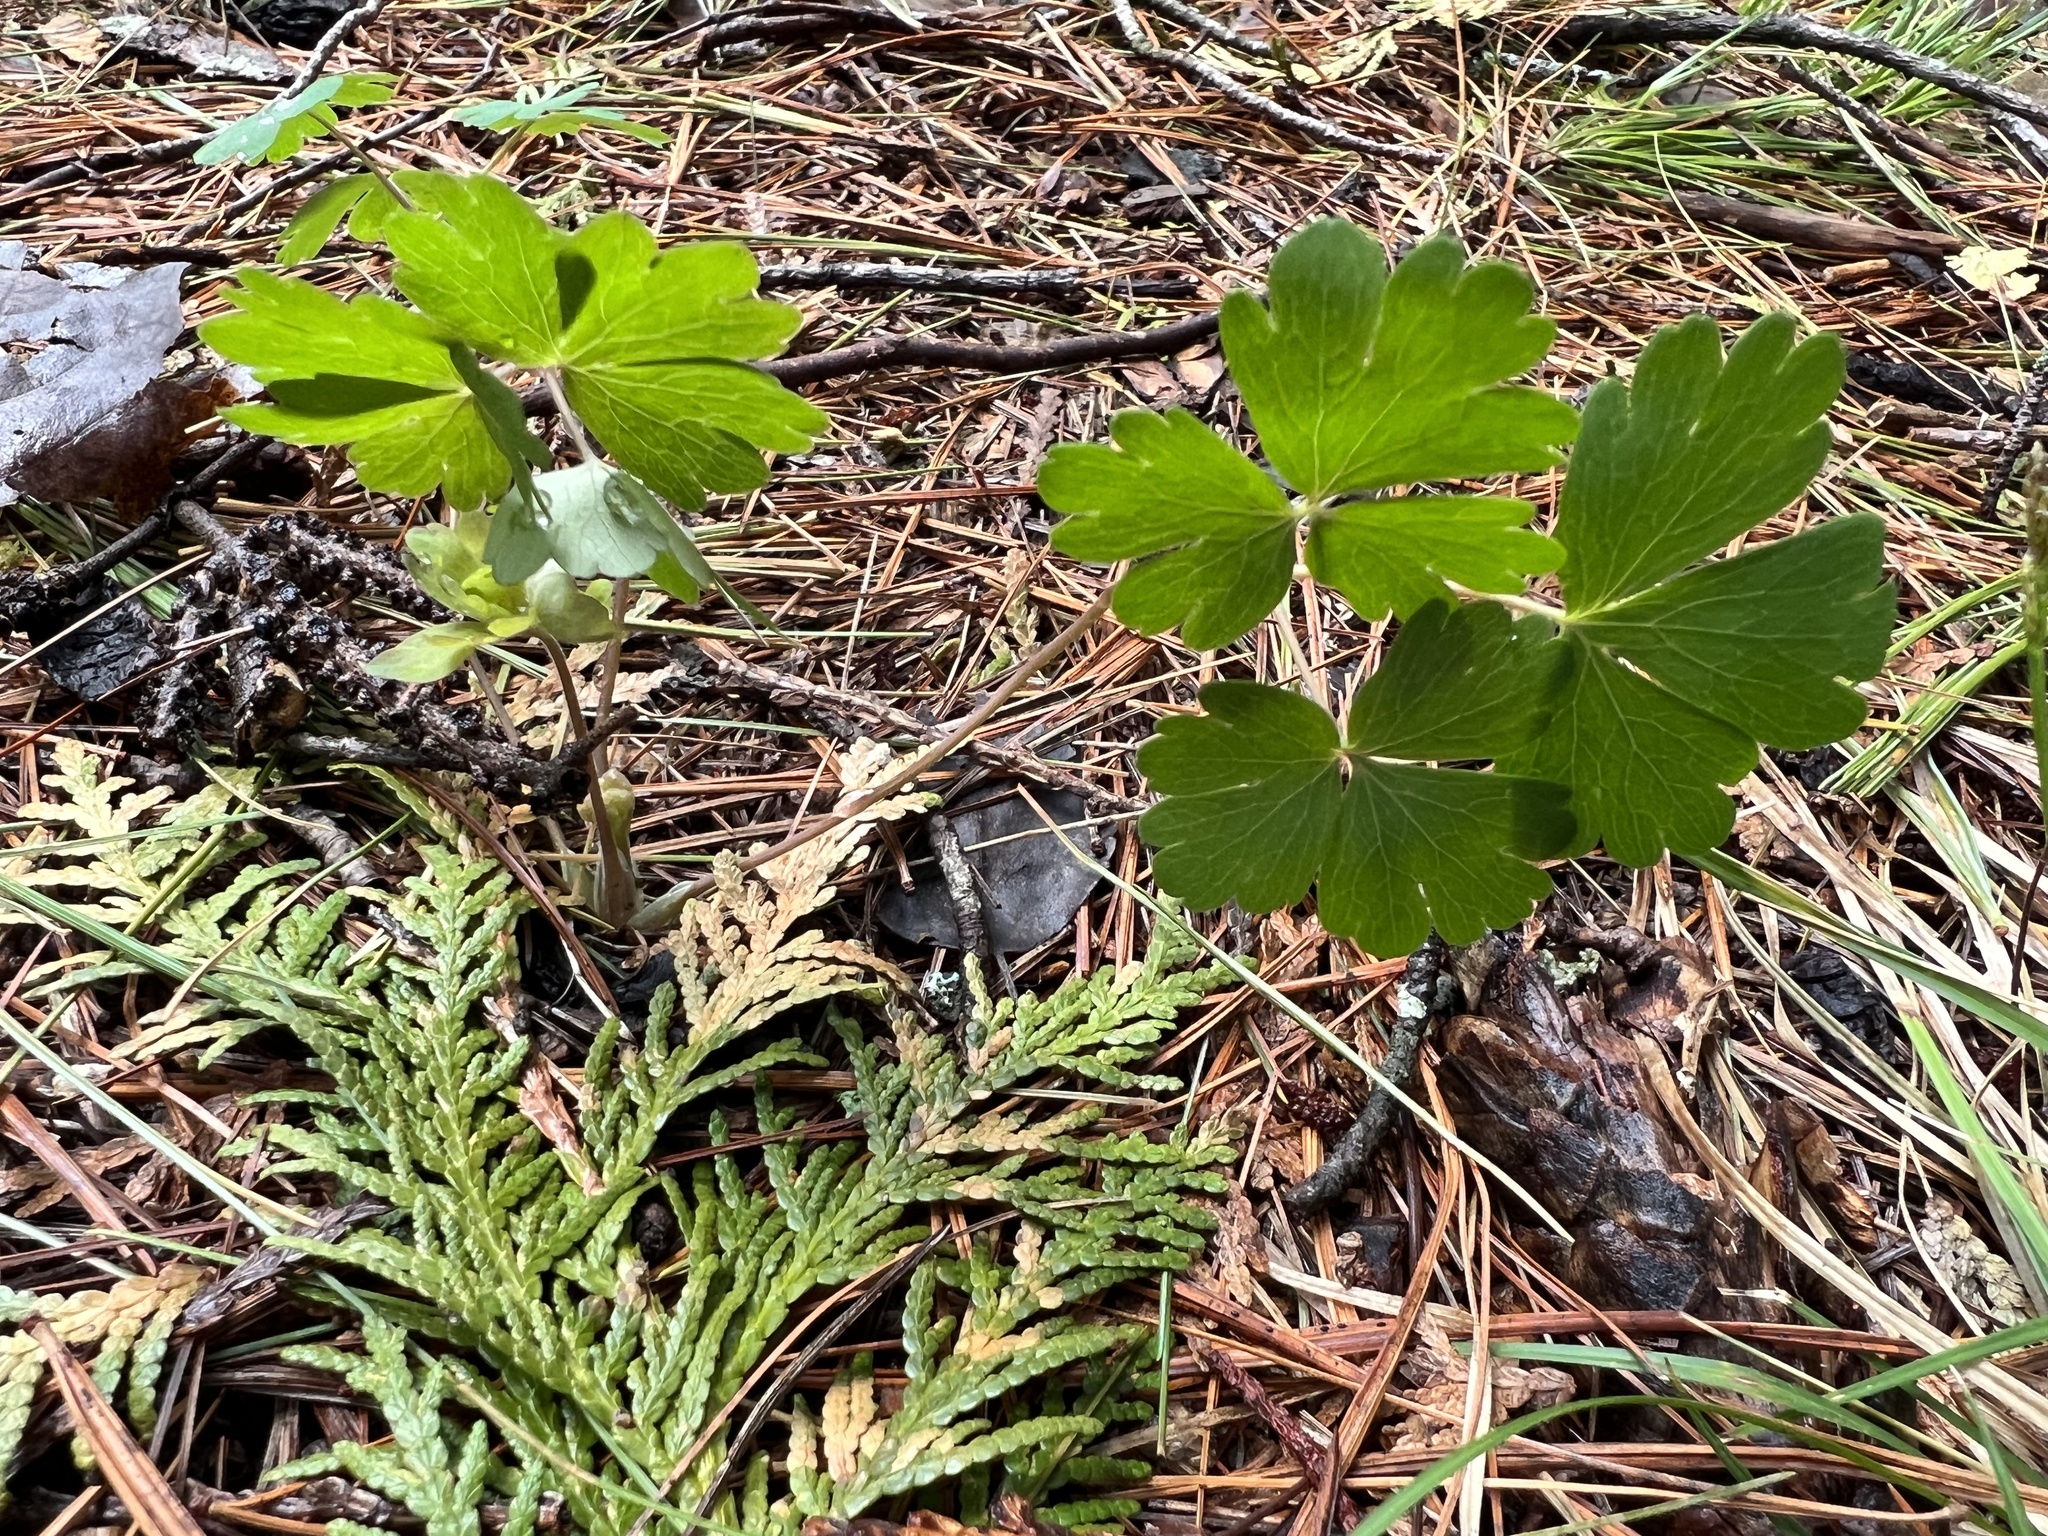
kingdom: Plantae
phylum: Tracheophyta
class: Magnoliopsida
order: Ranunculales
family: Ranunculaceae
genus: Aquilegia
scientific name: Aquilegia canadensis
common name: American columbine
